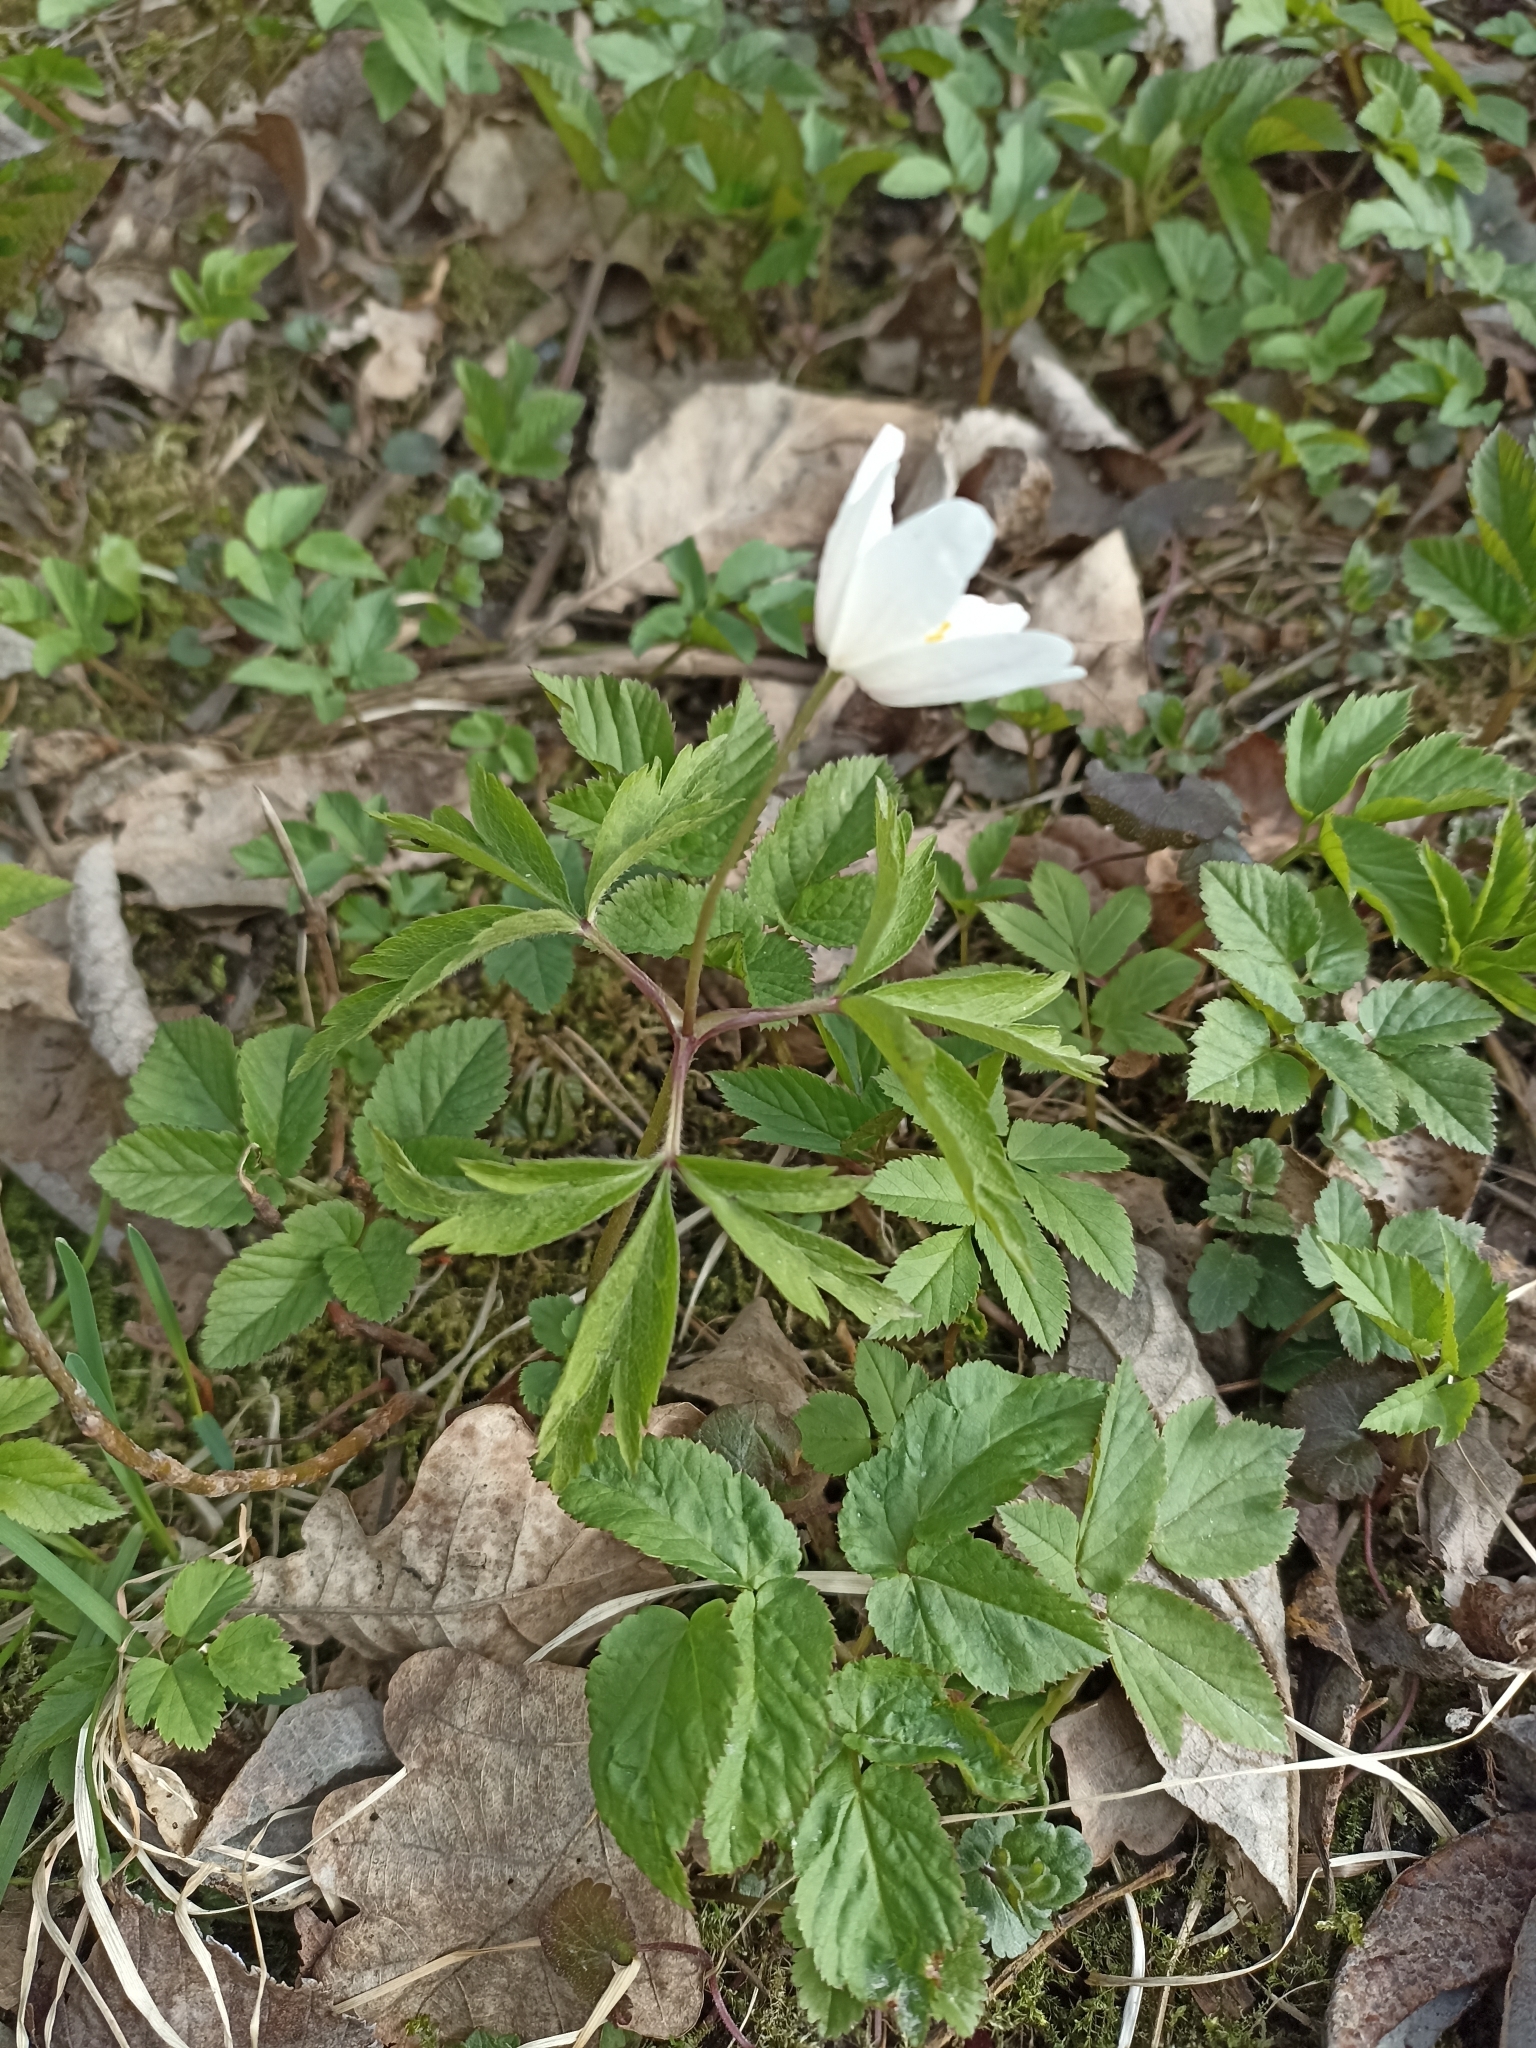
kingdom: Plantae
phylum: Tracheophyta
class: Magnoliopsida
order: Ranunculales
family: Ranunculaceae
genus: Anemone
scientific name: Anemone nemorosa
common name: Wood anemone
